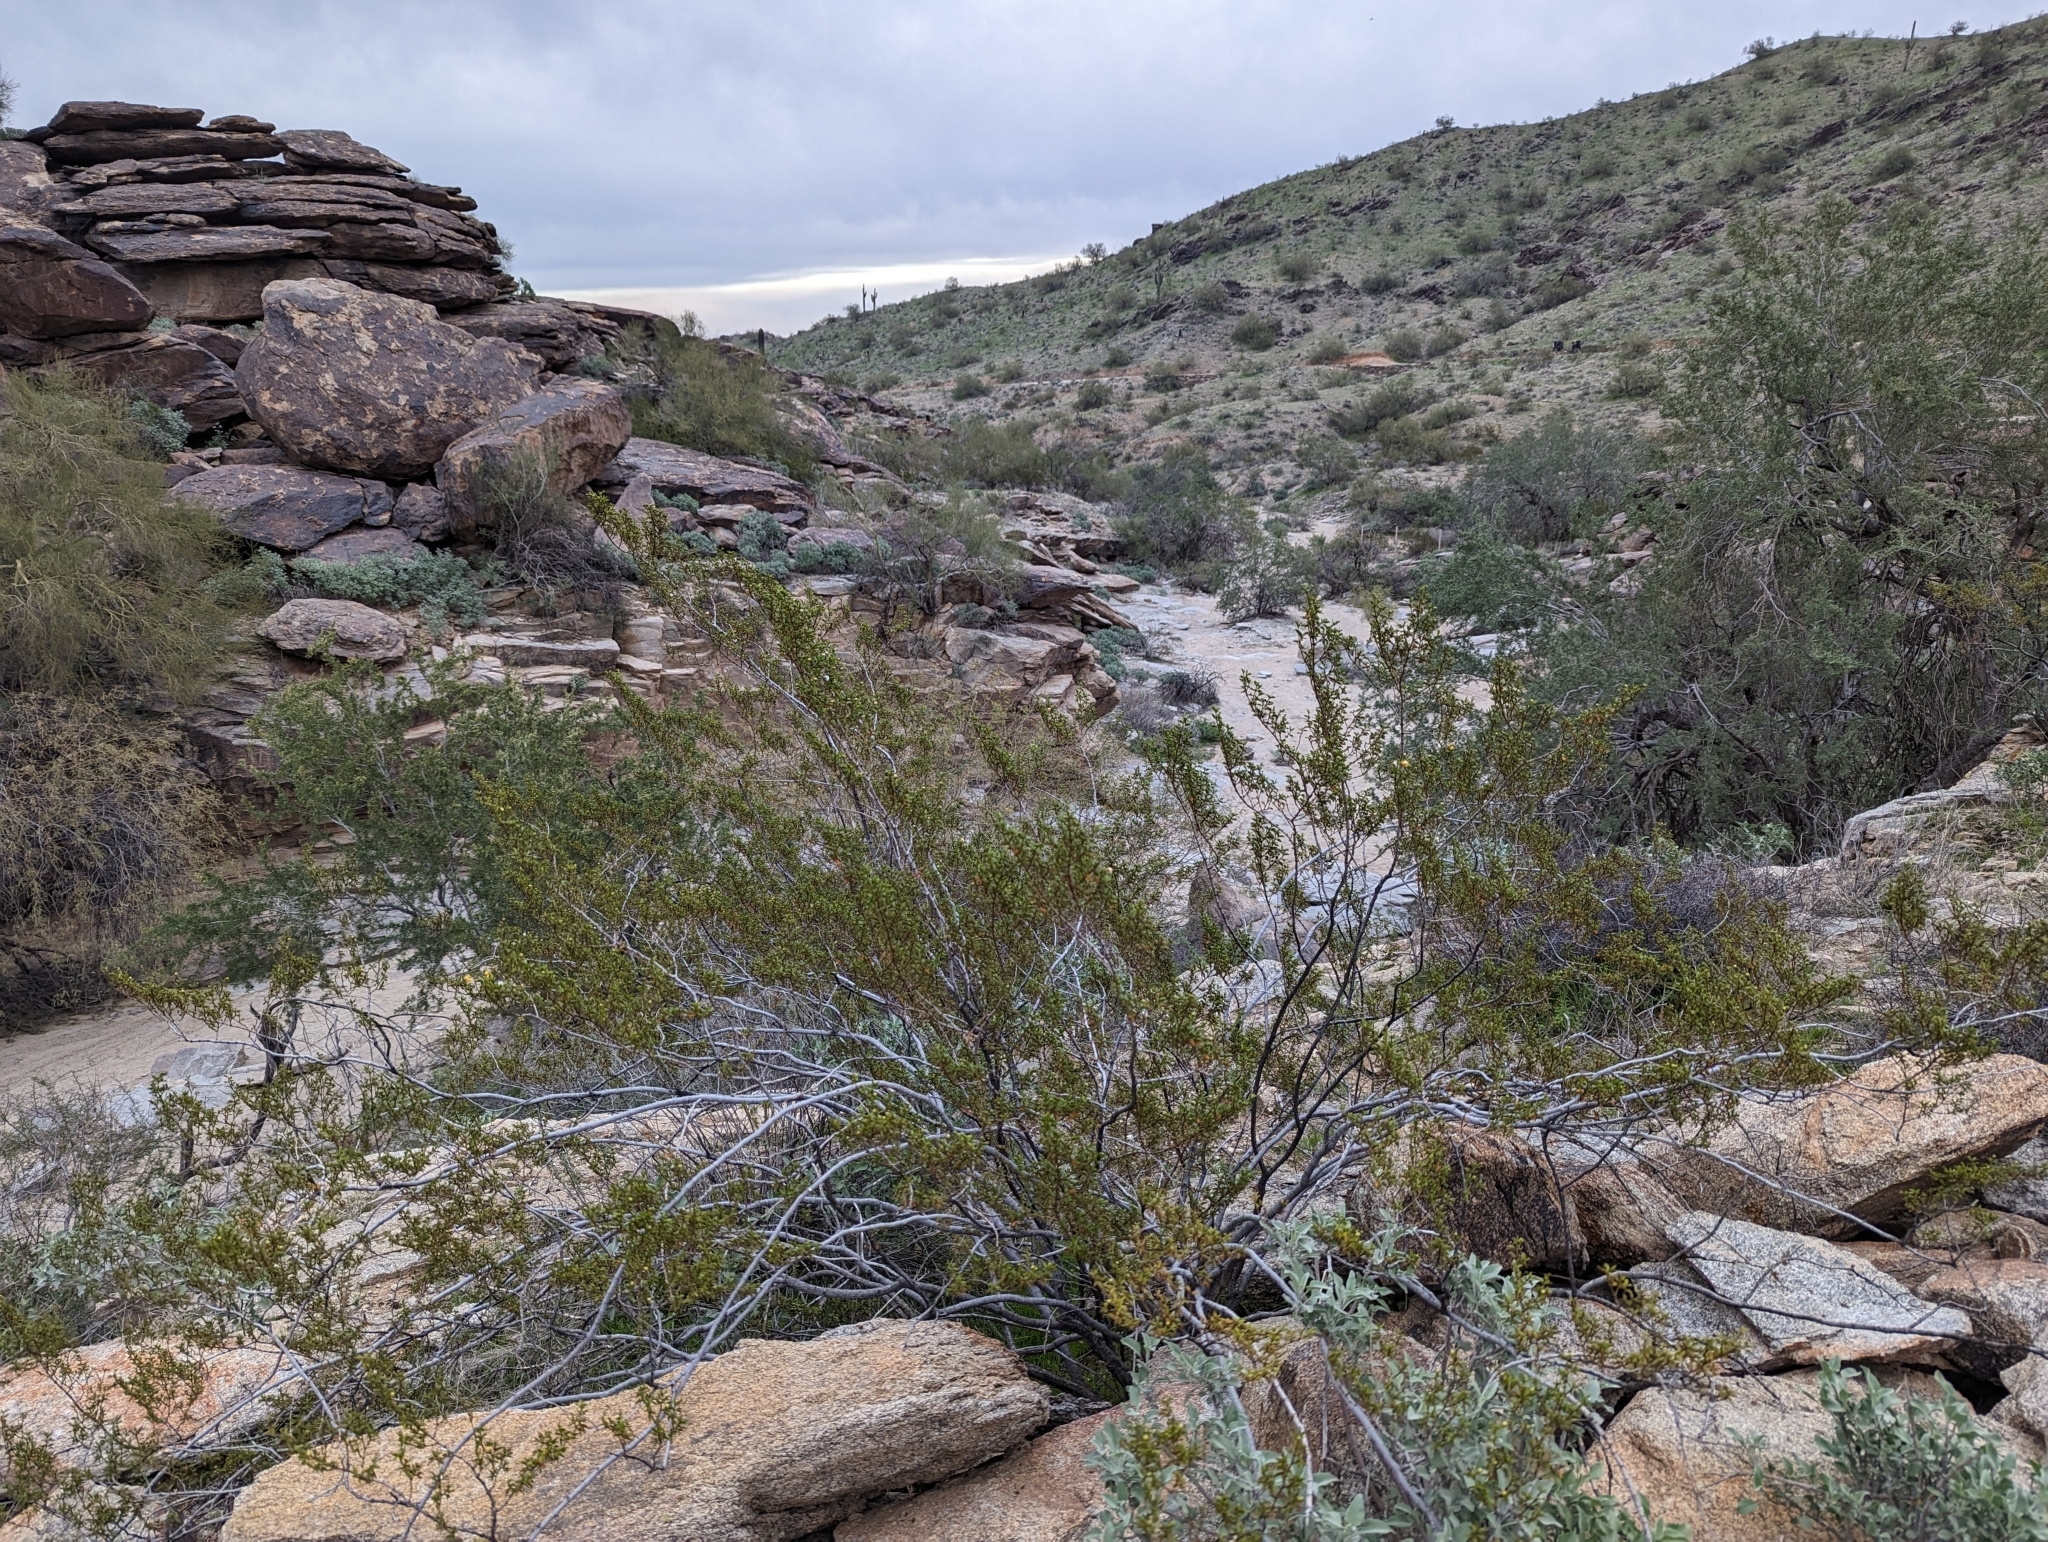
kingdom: Plantae
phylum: Tracheophyta
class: Magnoliopsida
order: Zygophyllales
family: Zygophyllaceae
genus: Larrea
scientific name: Larrea tridentata
